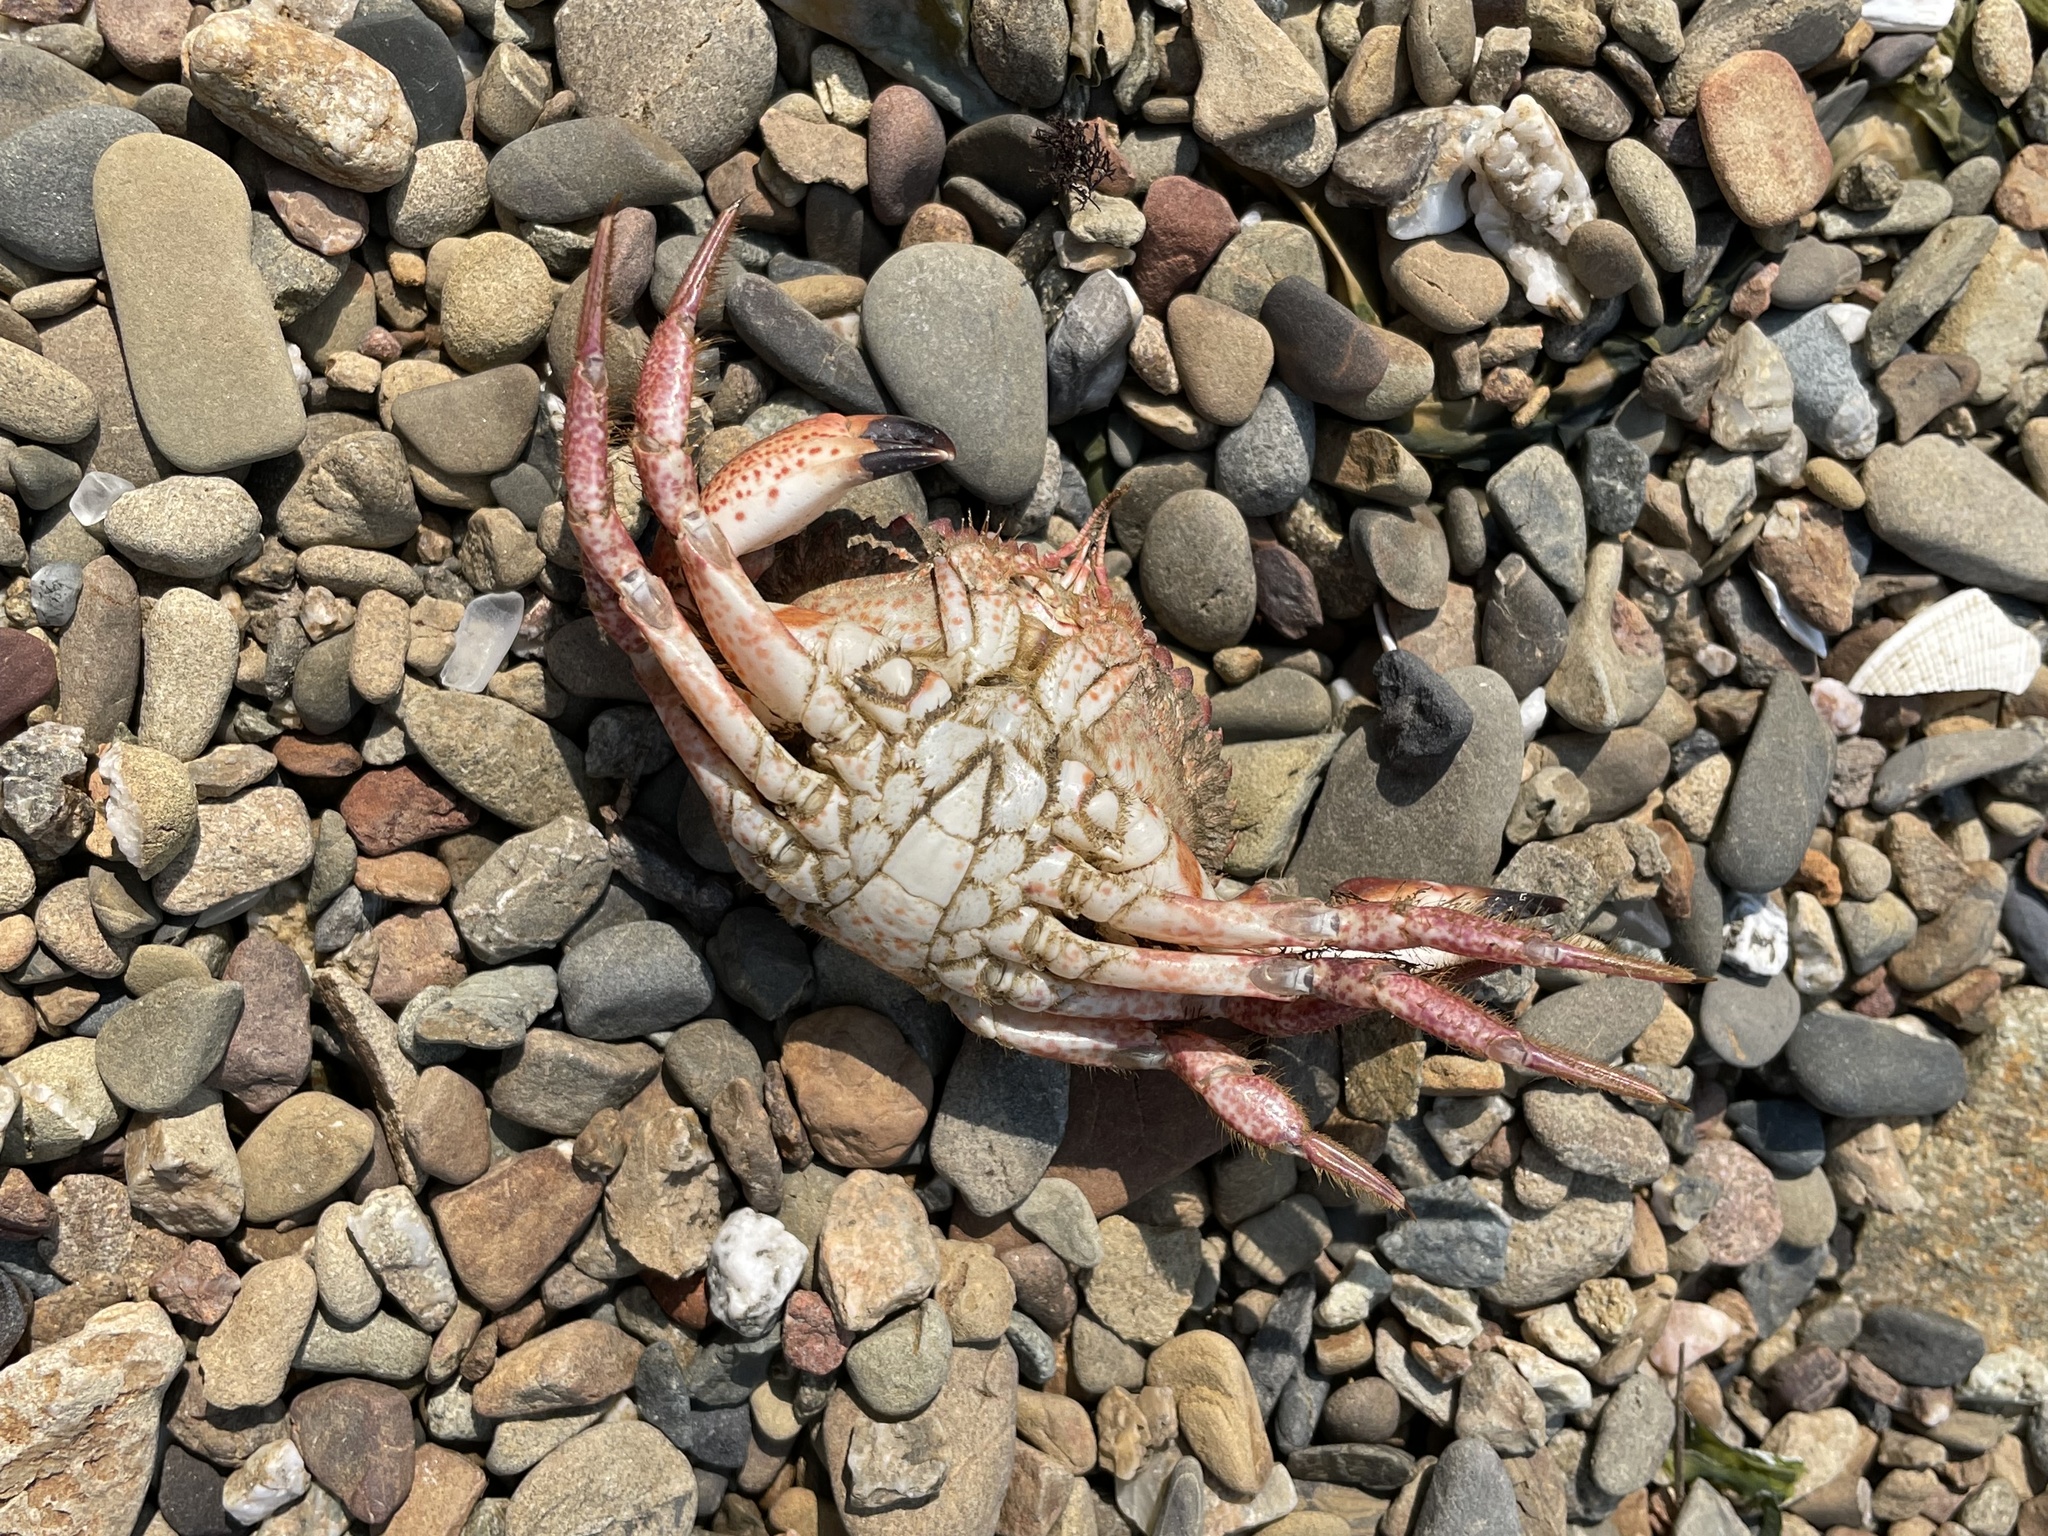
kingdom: Animalia
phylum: Arthropoda
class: Malacostraca
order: Decapoda
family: Cancridae
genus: Romaleon
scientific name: Romaleon antennarium
